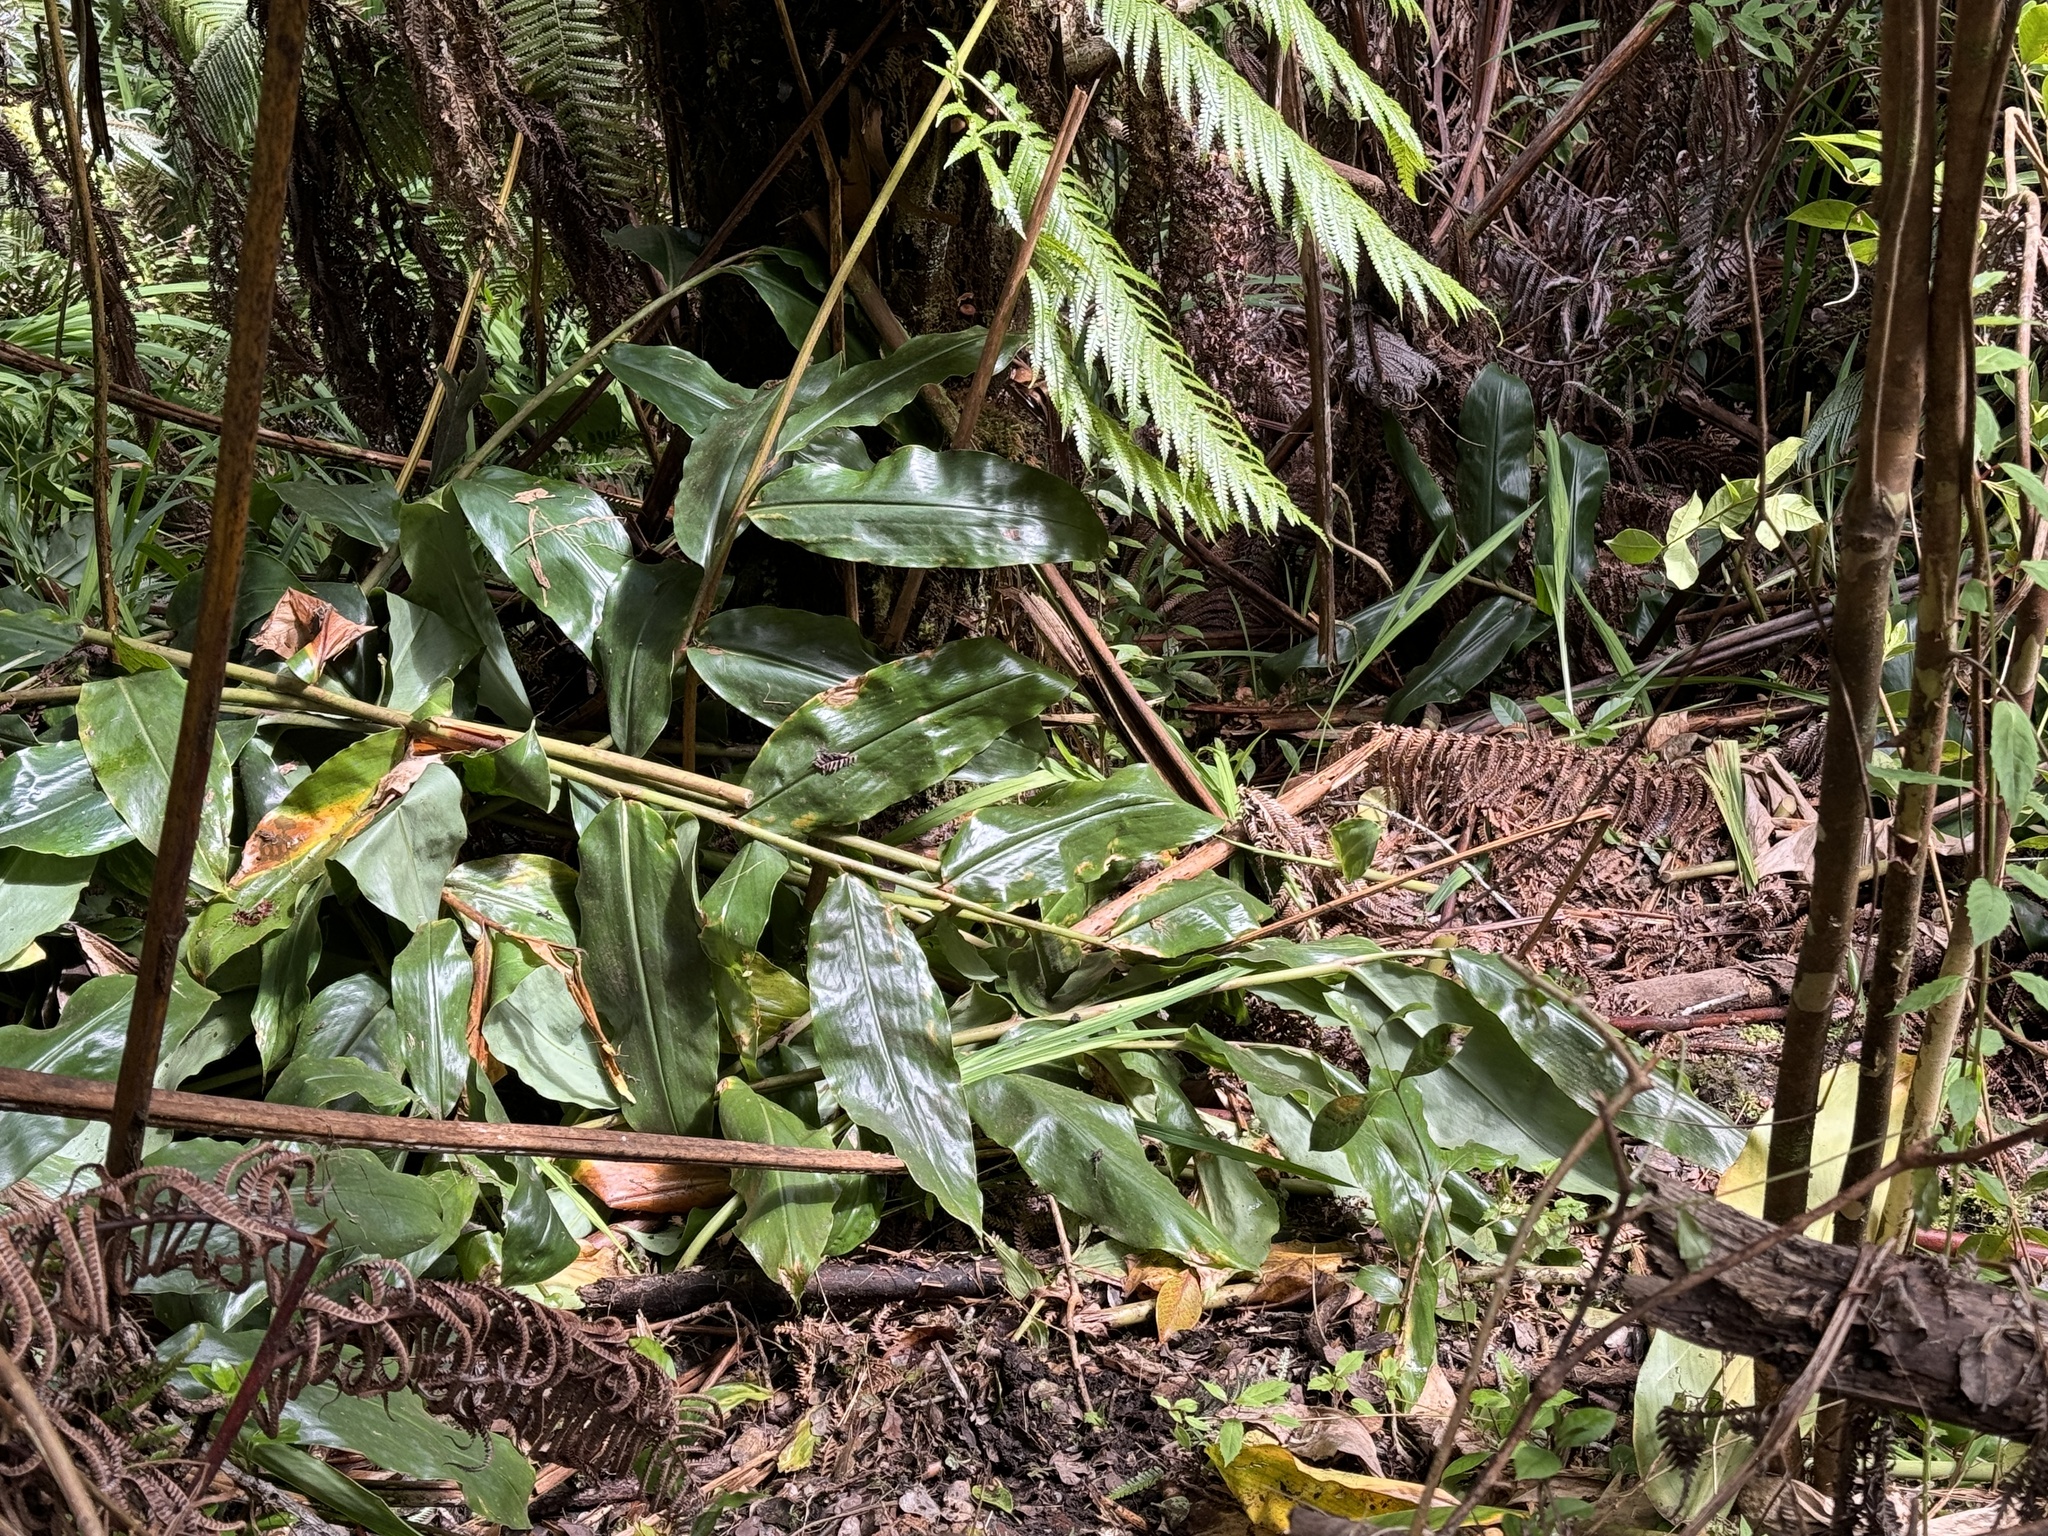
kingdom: Plantae
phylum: Tracheophyta
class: Liliopsida
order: Zingiberales
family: Zingiberaceae
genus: Hedychium
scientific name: Hedychium gardnerianum
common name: Himalayan ginger
